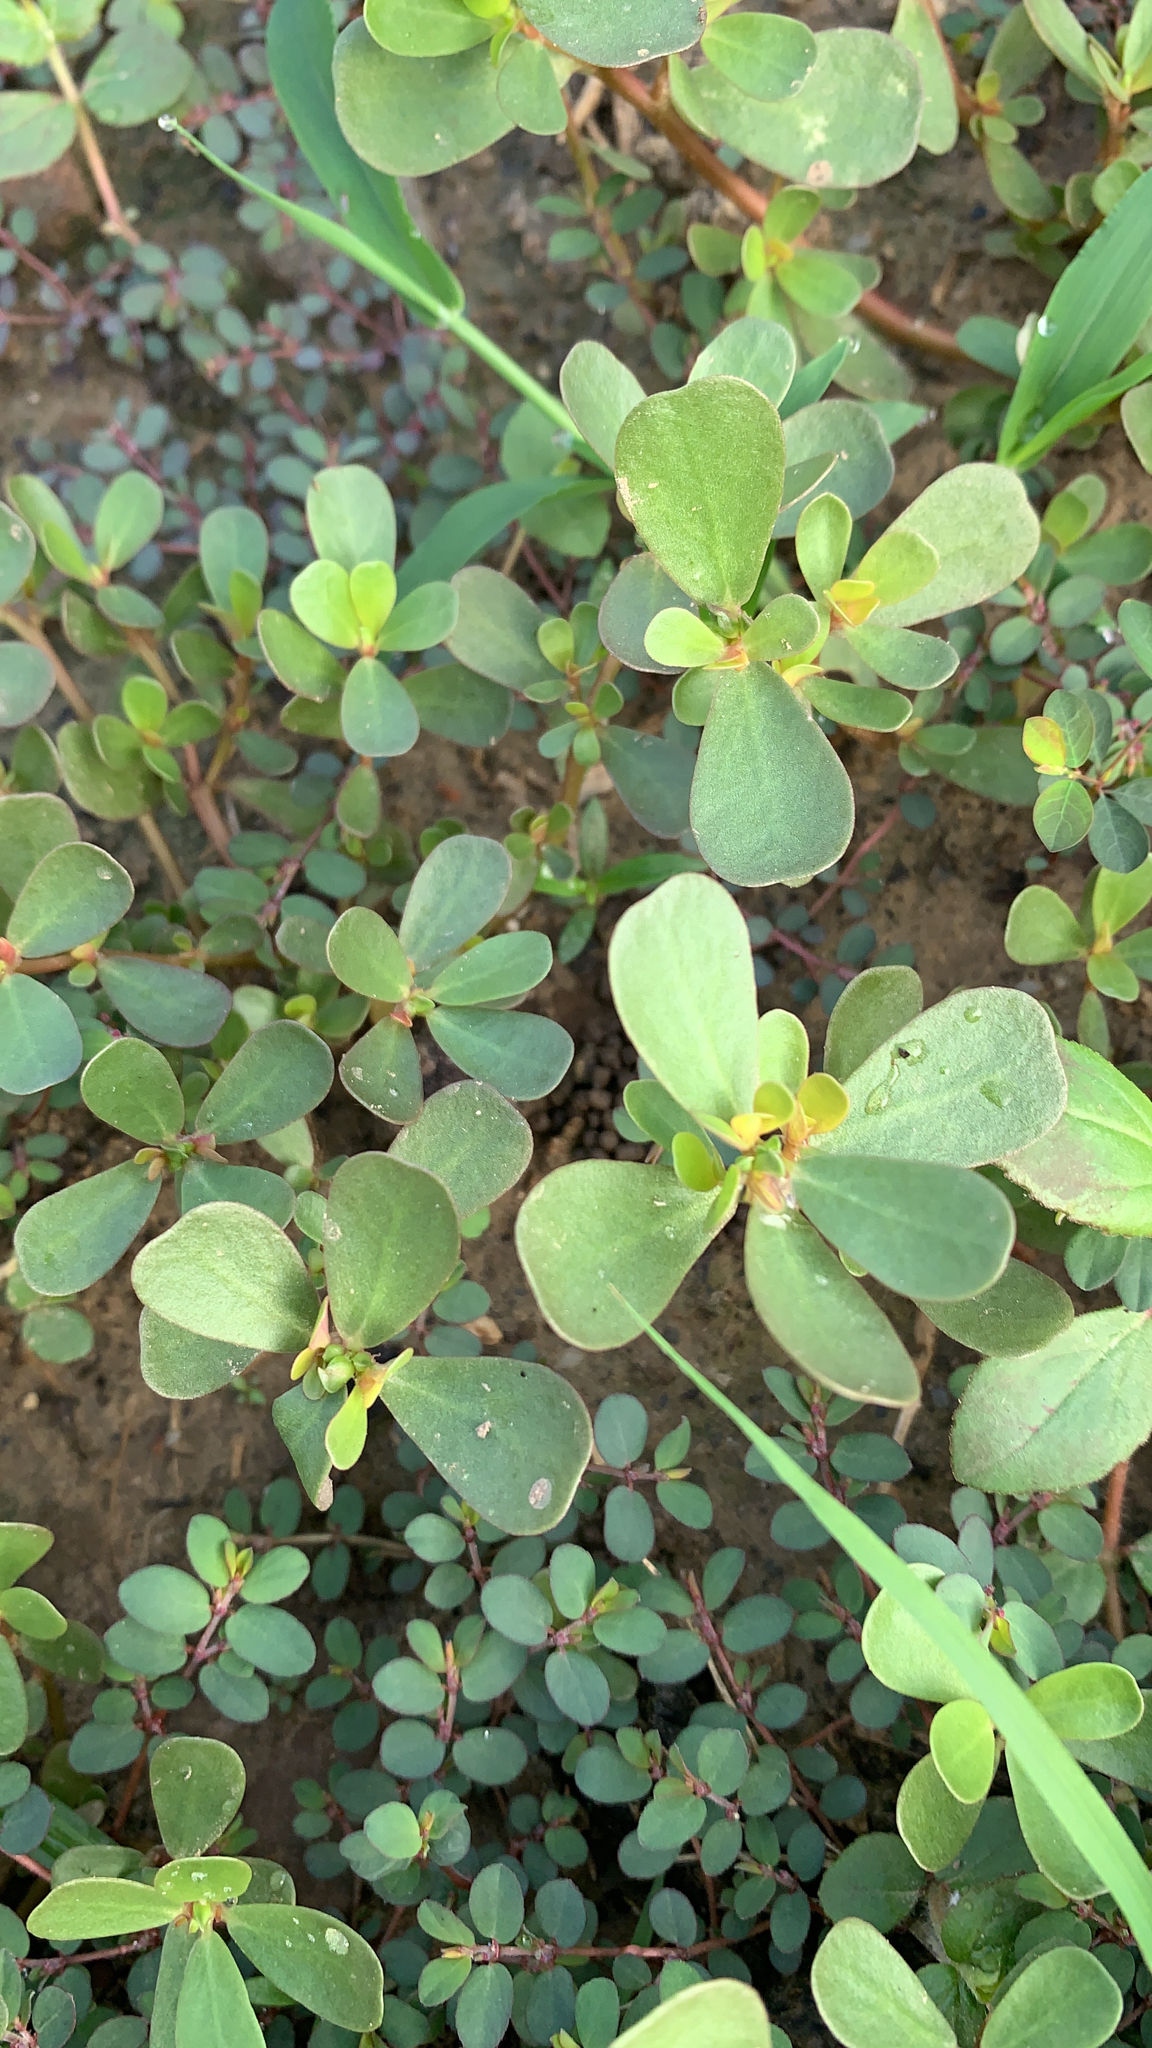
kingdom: Plantae
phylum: Tracheophyta
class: Magnoliopsida
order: Caryophyllales
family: Portulacaceae
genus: Portulaca
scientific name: Portulaca oleracea
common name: Common purslane
